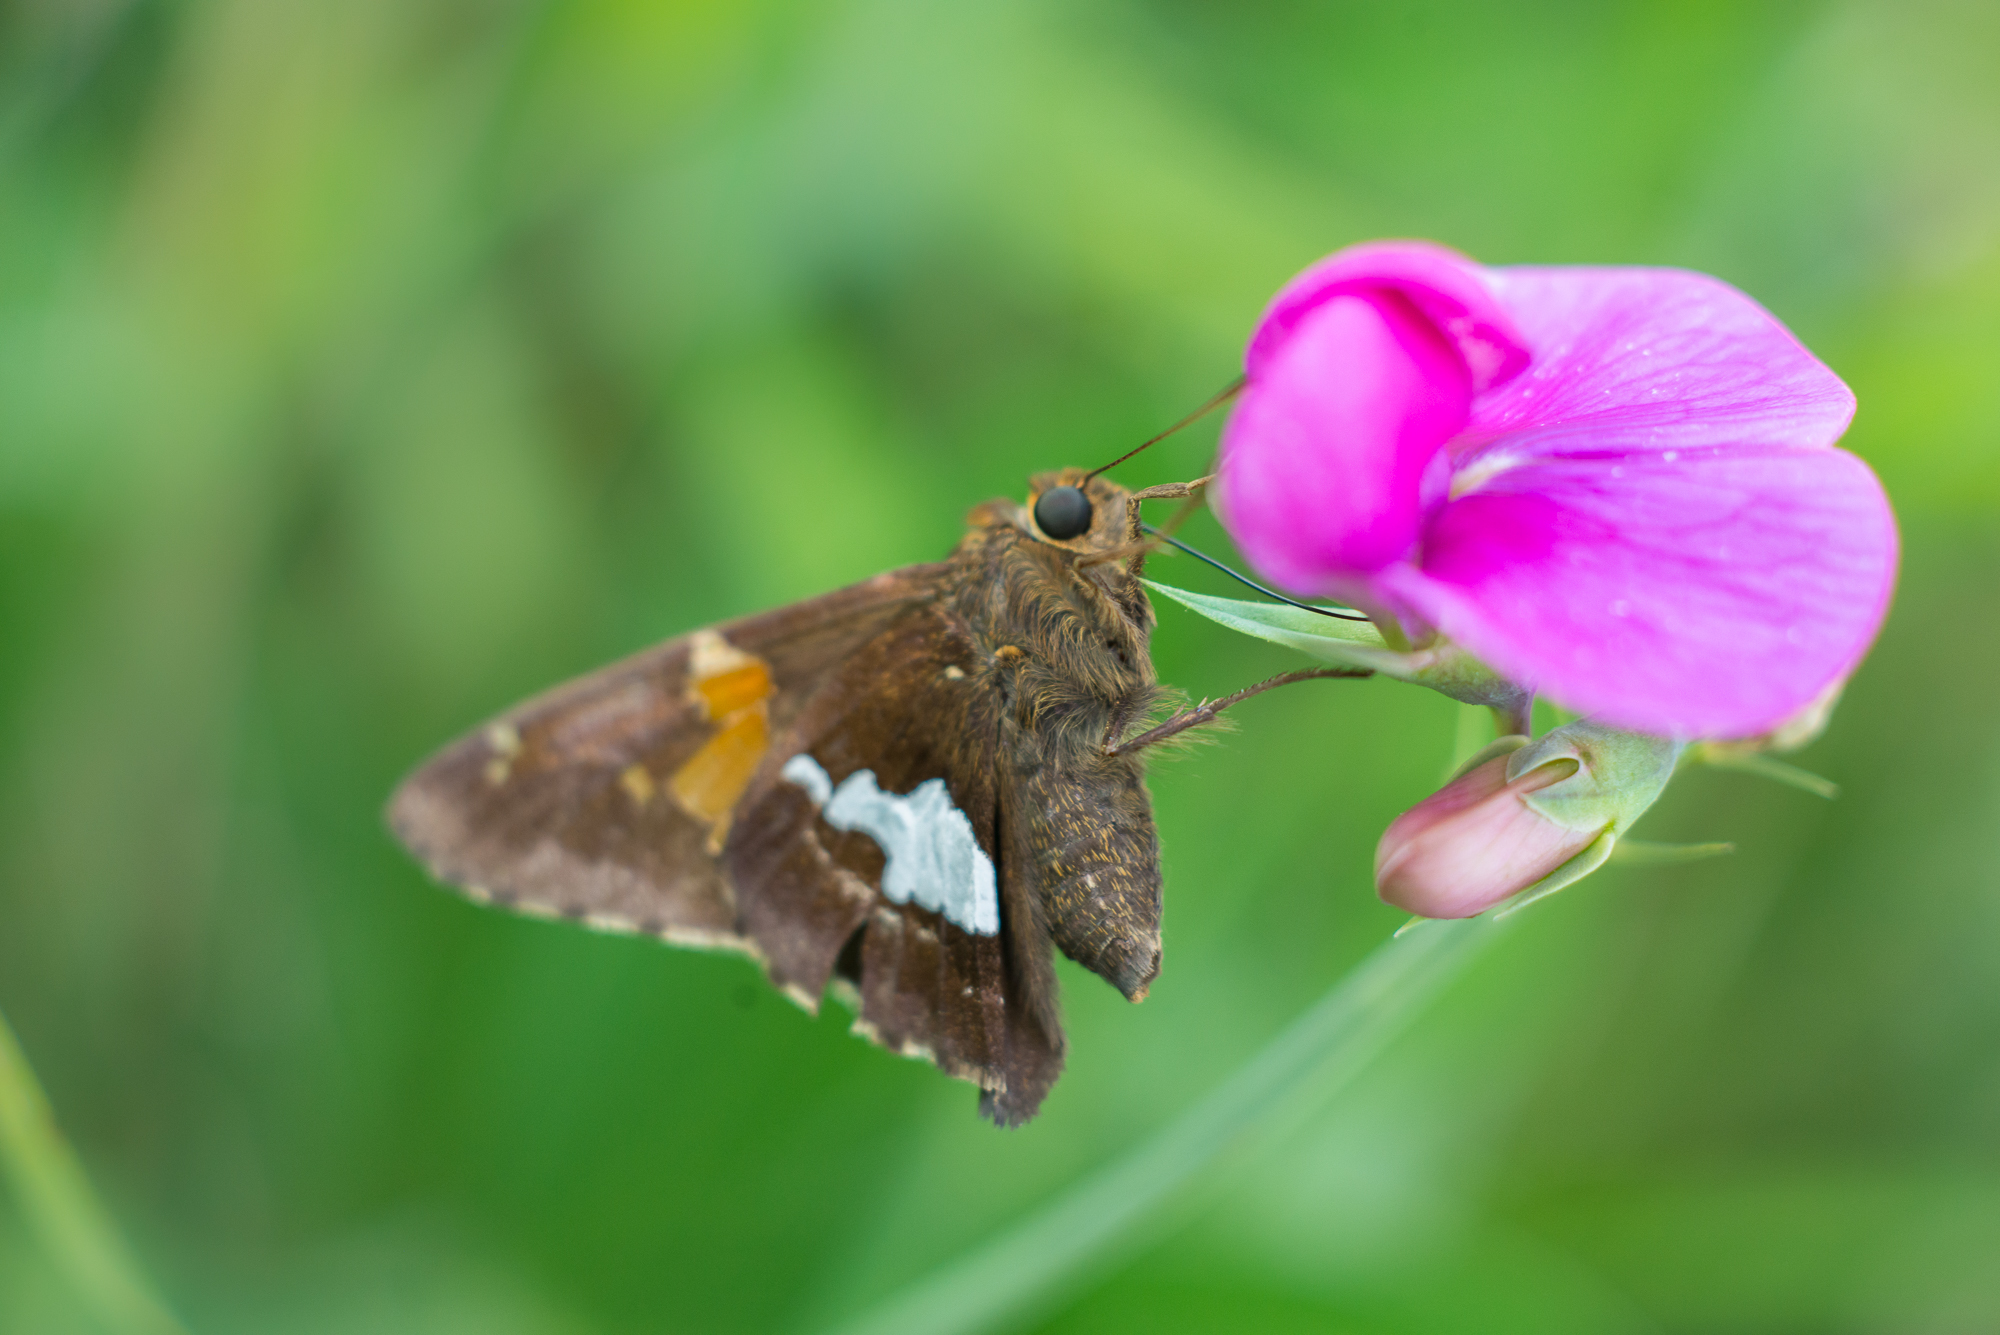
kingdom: Animalia
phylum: Arthropoda
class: Insecta
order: Lepidoptera
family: Hesperiidae
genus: Epargyreus
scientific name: Epargyreus clarus
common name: Silver-spotted skipper
